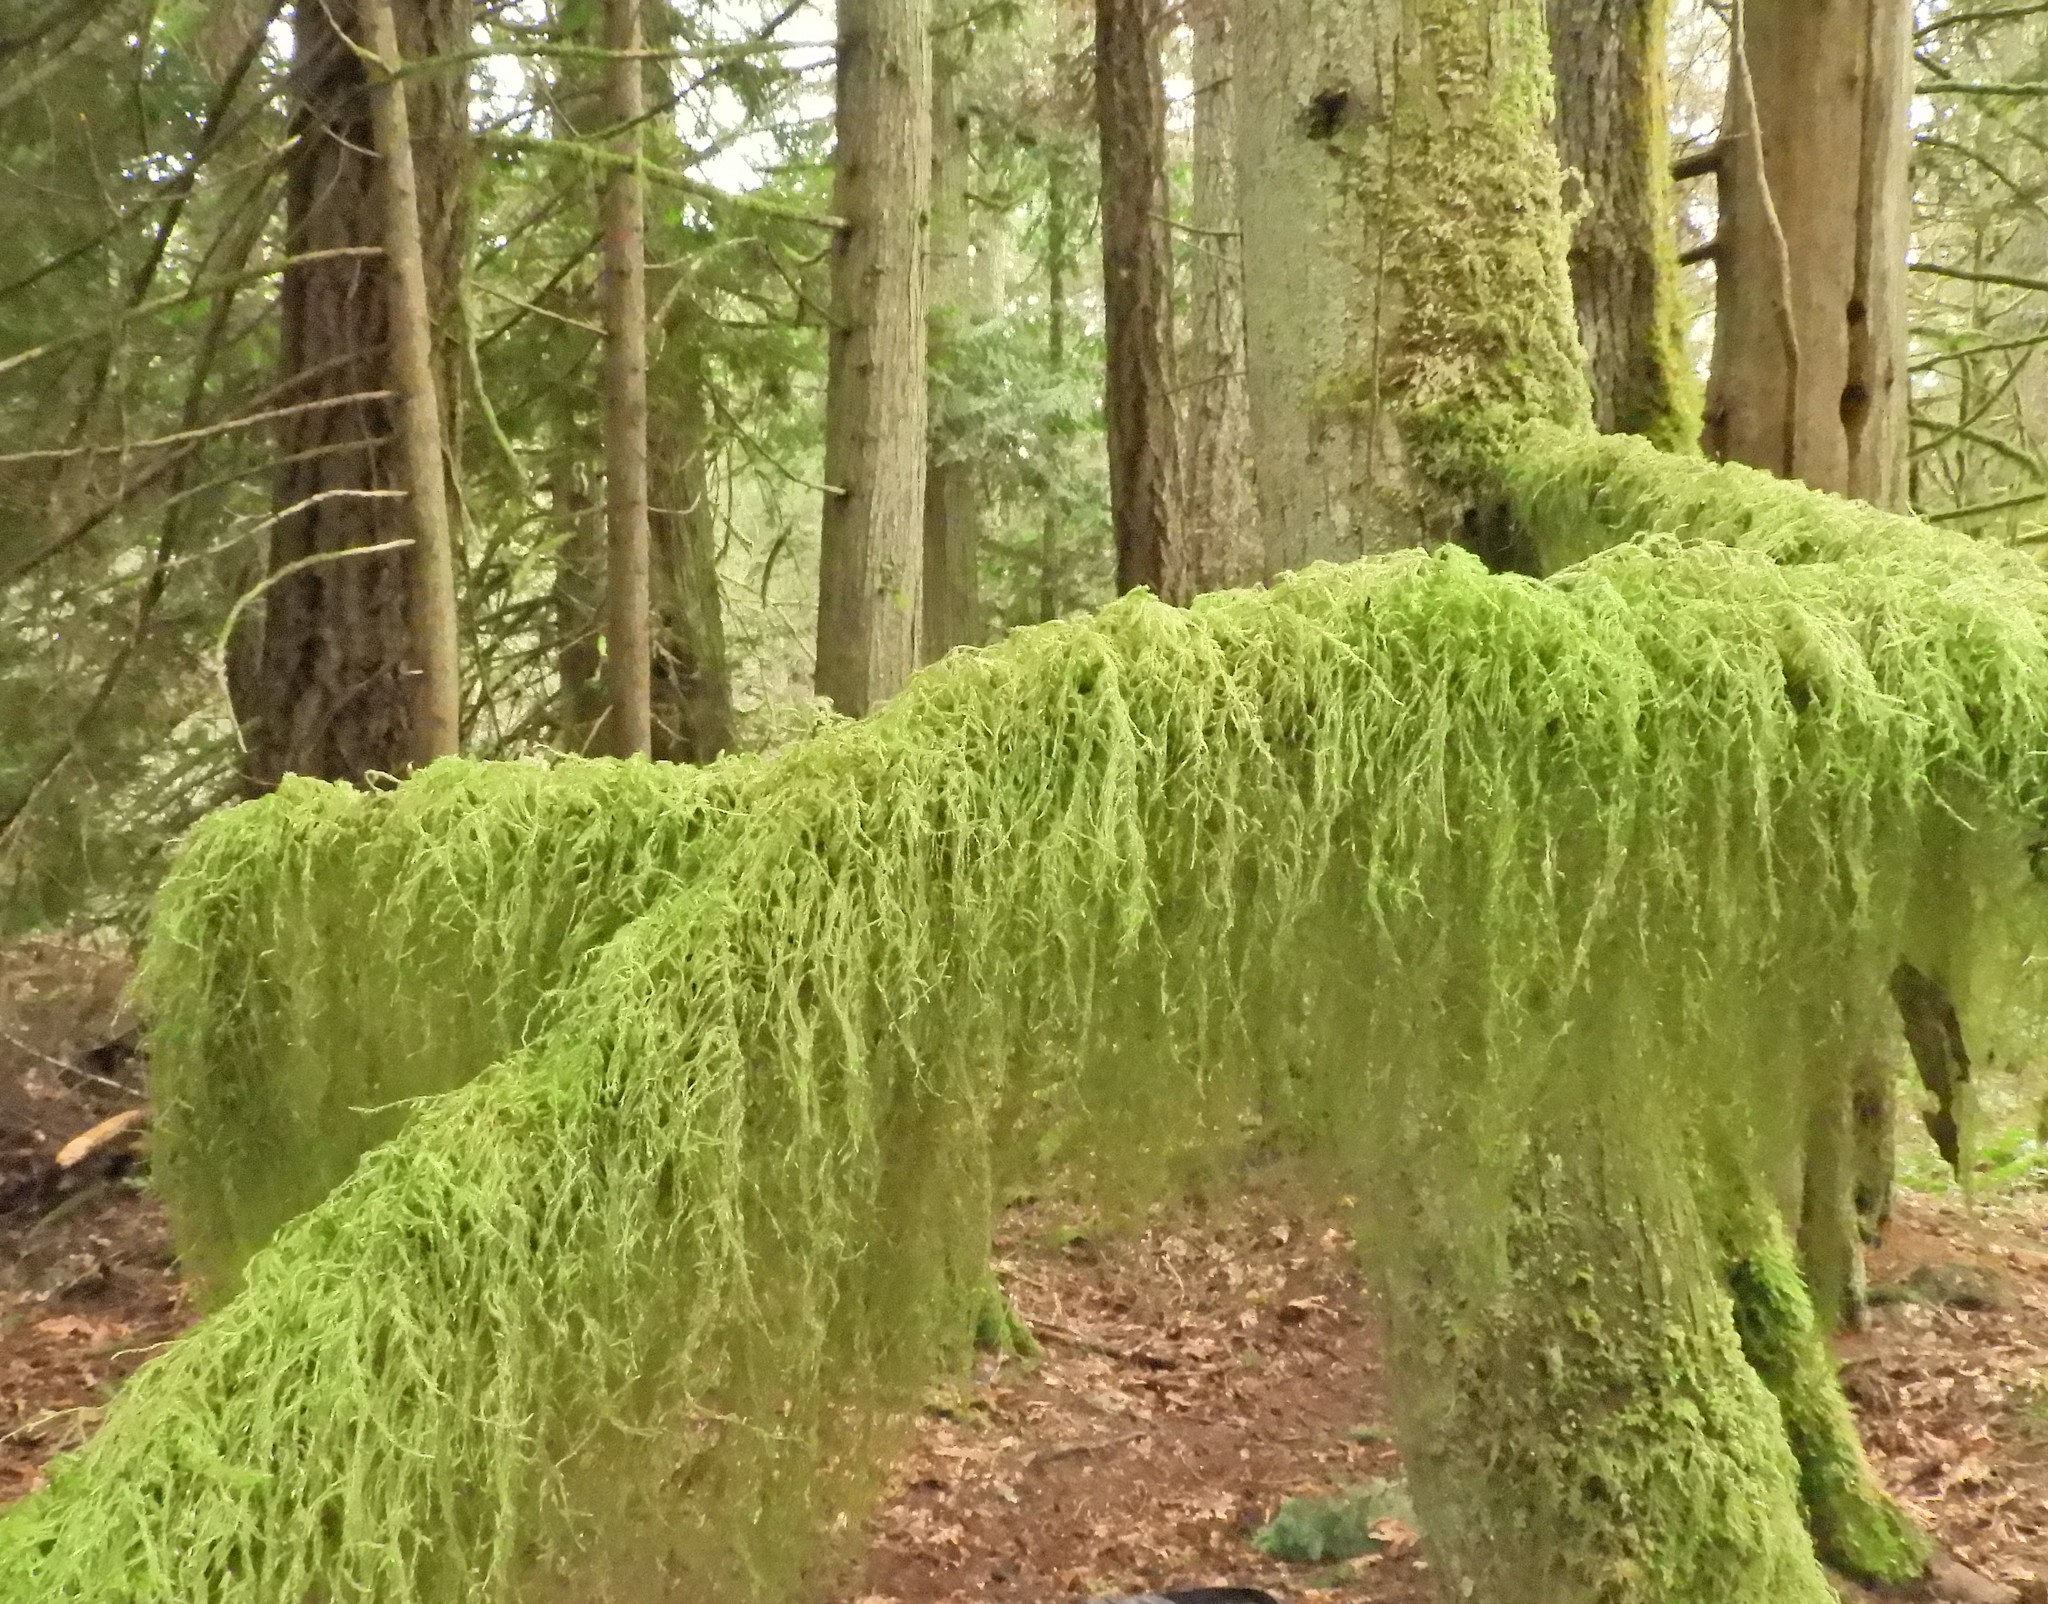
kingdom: Plantae
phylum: Bryophyta
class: Bryopsida
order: Hypnales
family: Lembophyllaceae
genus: Pseudisothecium
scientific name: Pseudisothecium stoloniferum
